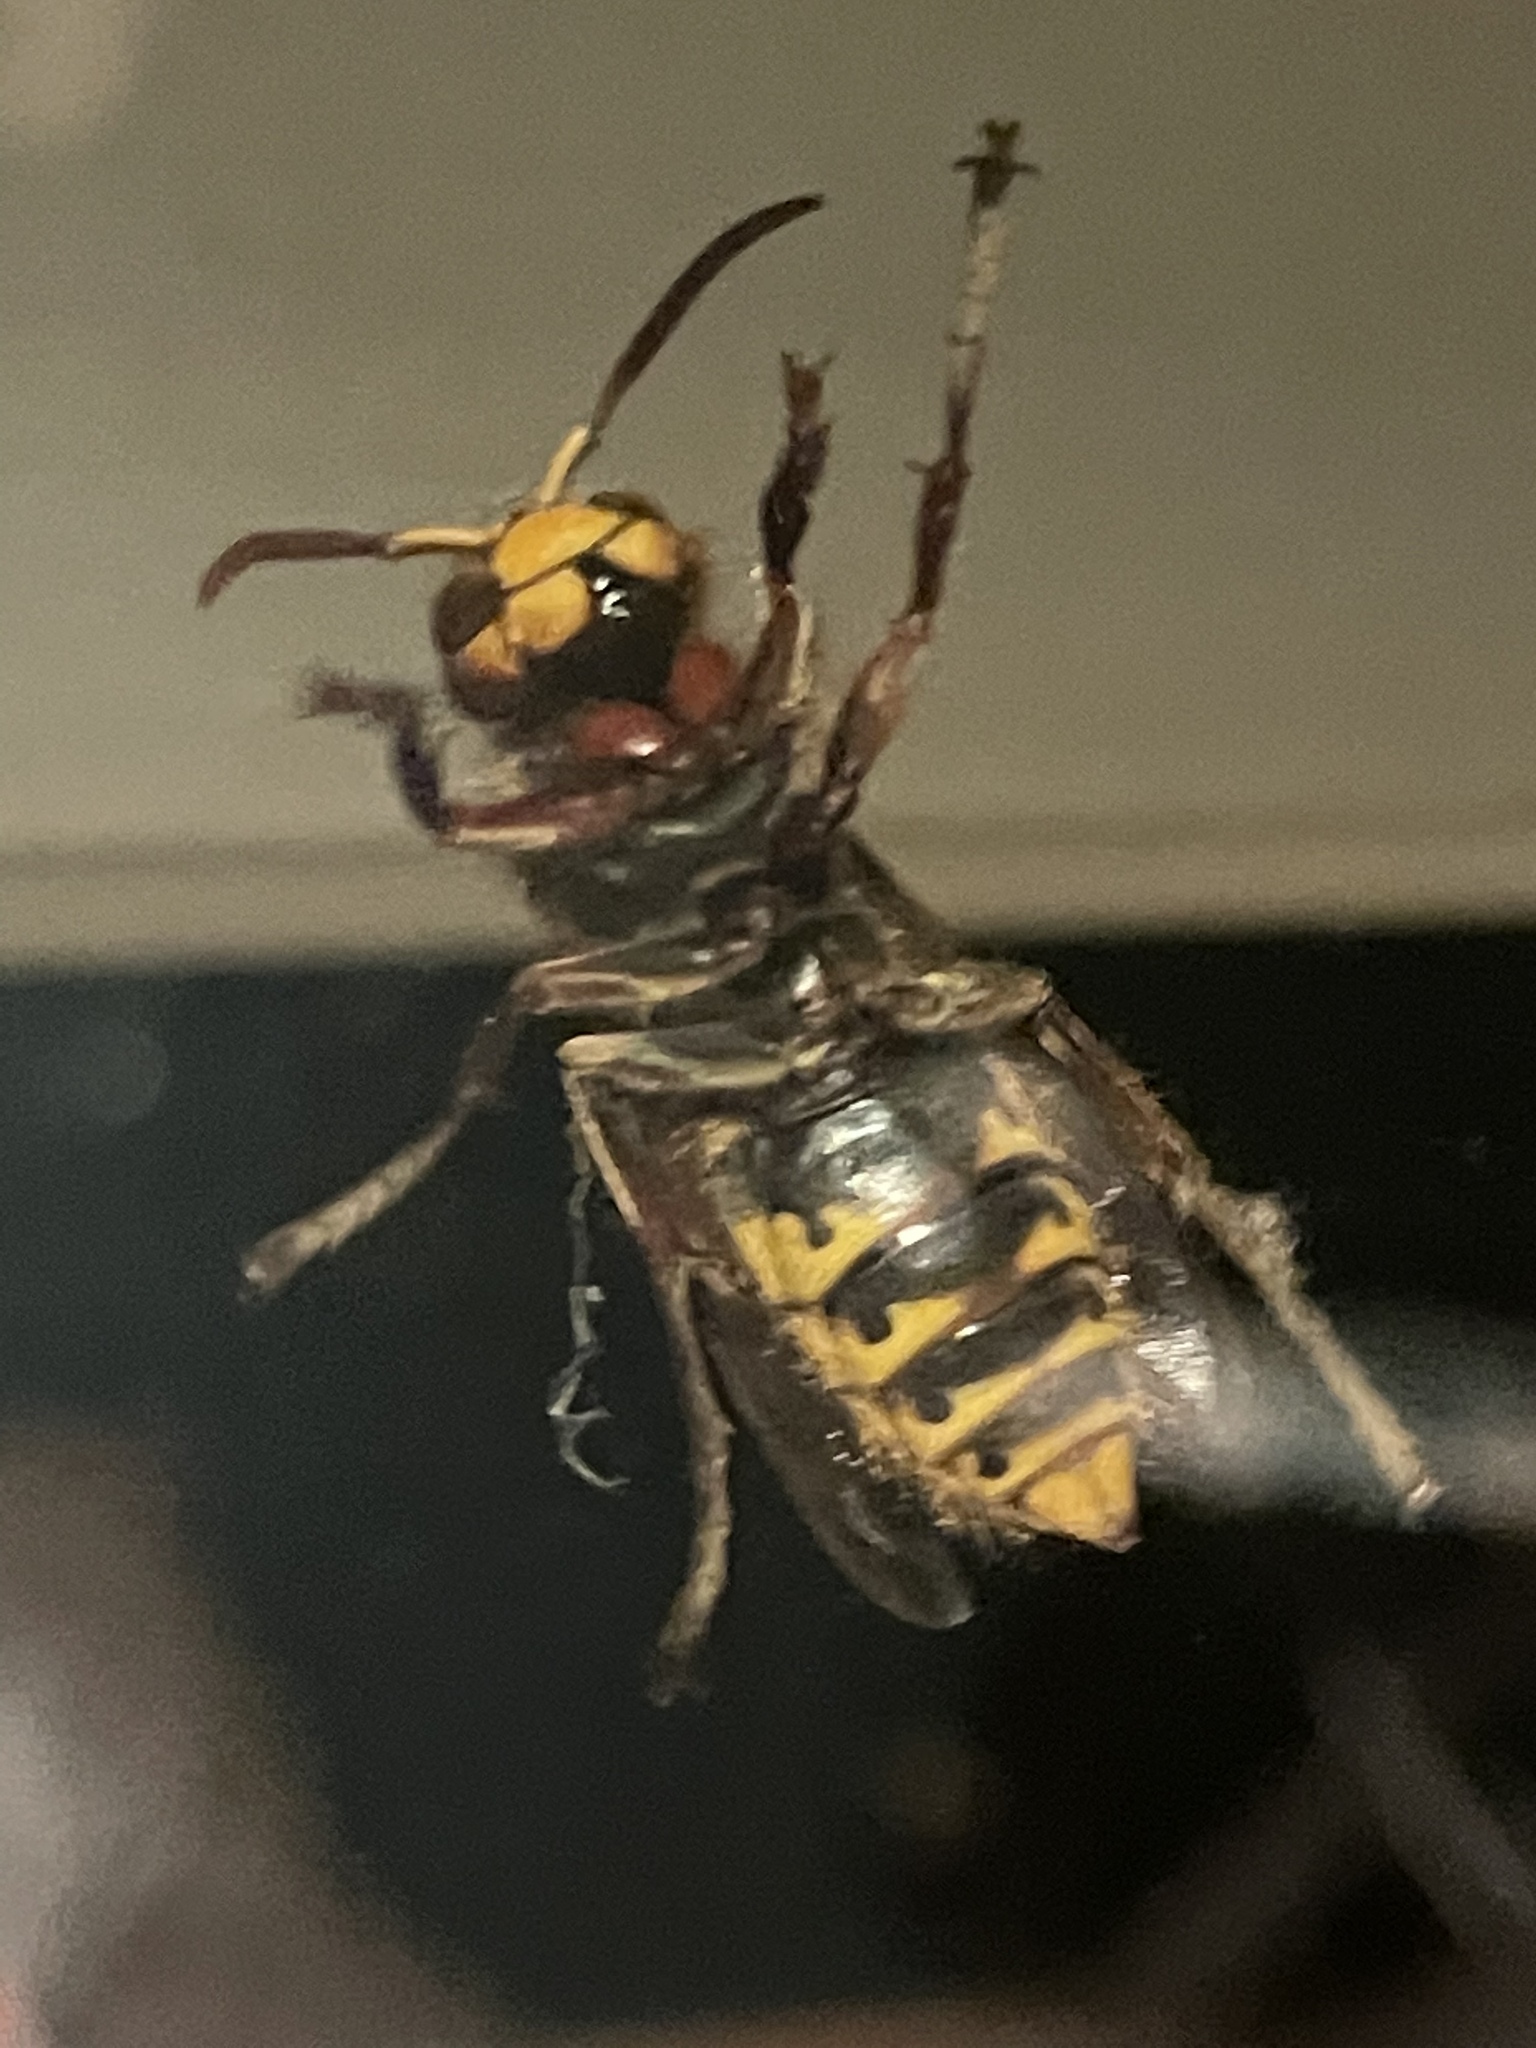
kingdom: Animalia
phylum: Arthropoda
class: Insecta
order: Hymenoptera
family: Vespidae
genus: Vespa
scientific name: Vespa crabro
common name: Hornet
